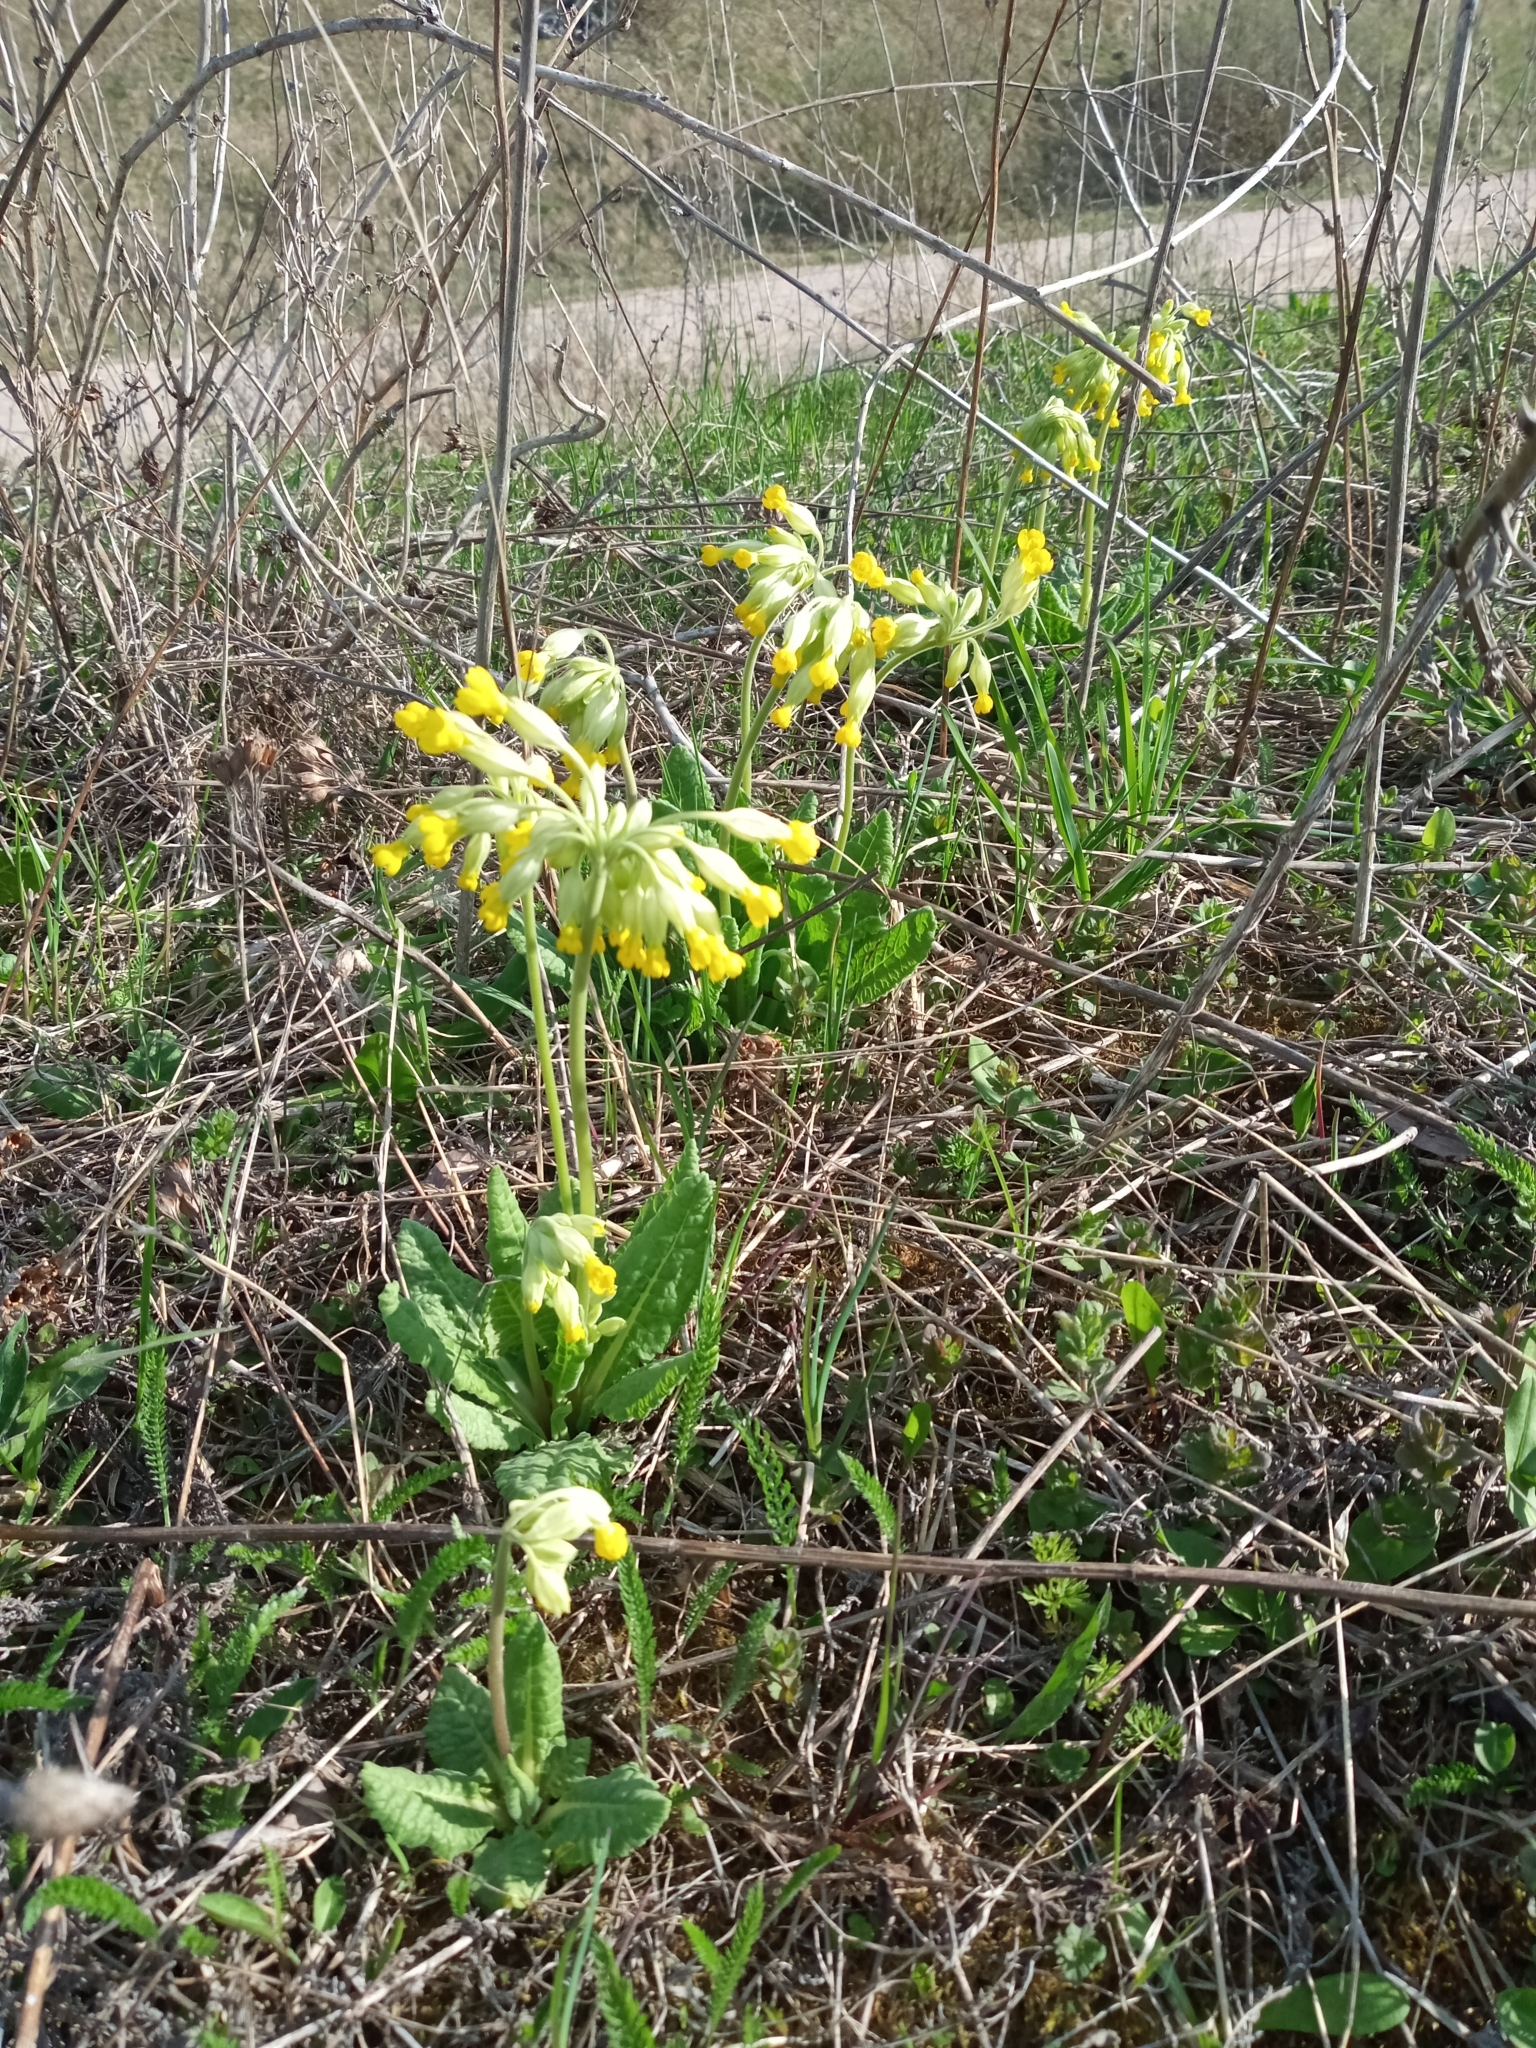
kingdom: Plantae
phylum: Tracheophyta
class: Magnoliopsida
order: Ericales
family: Primulaceae
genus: Primula
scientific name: Primula veris
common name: Cowslip
